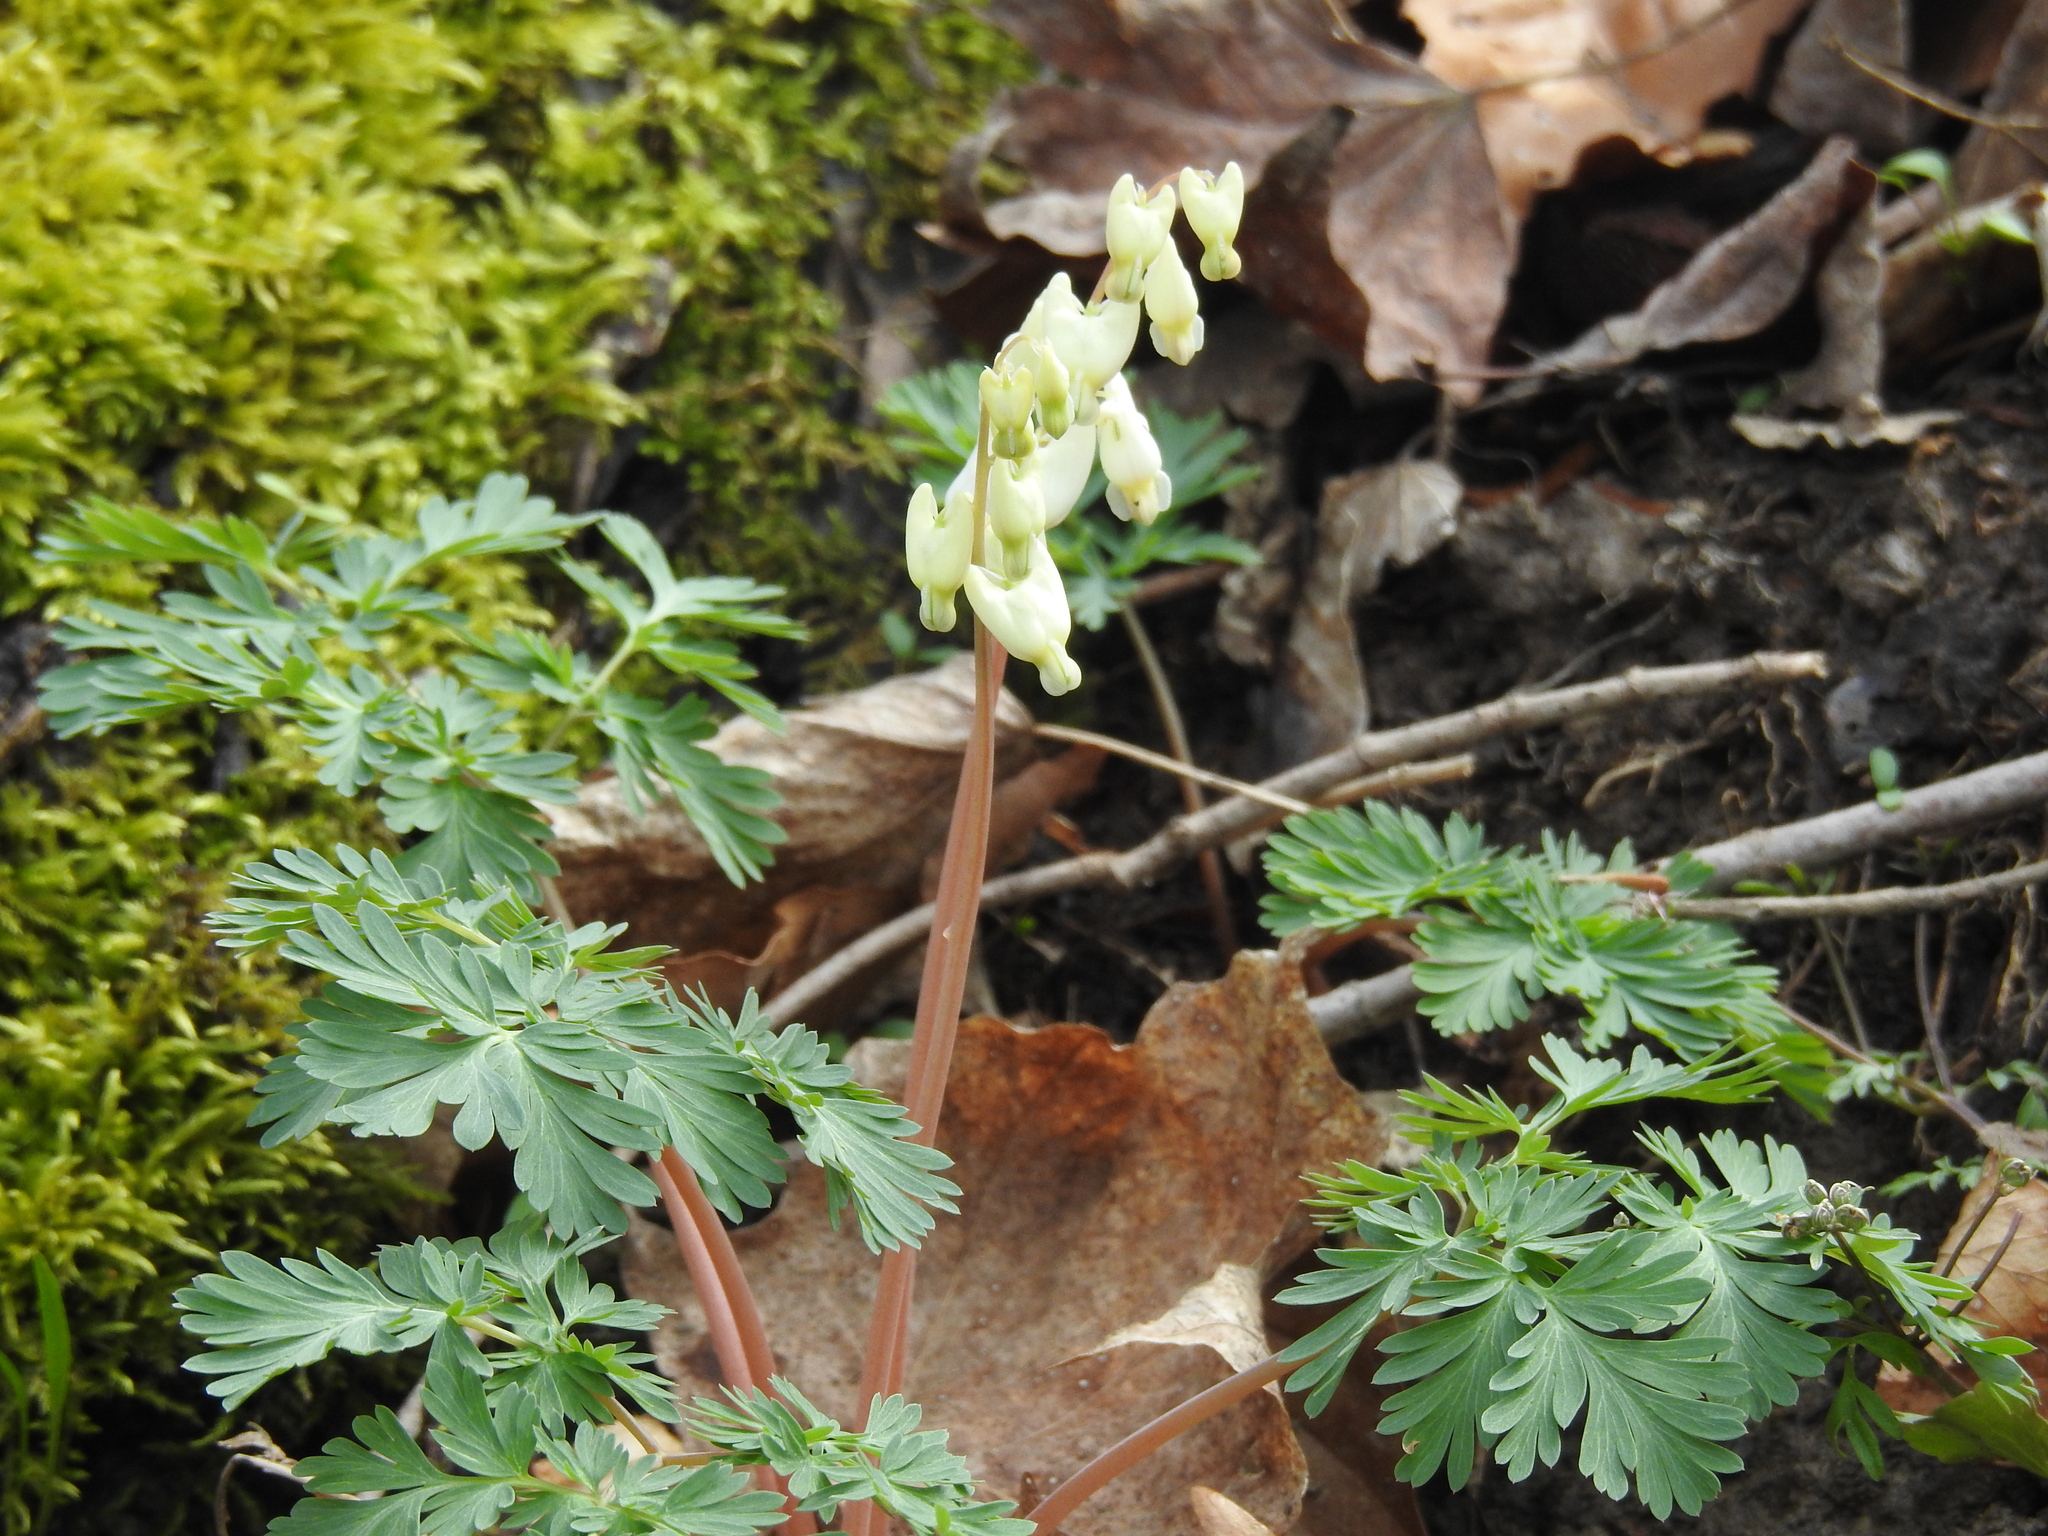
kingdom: Plantae
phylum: Tracheophyta
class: Magnoliopsida
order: Ranunculales
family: Papaveraceae
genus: Dicentra
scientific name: Dicentra cucullaria
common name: Dutchman's breeches
